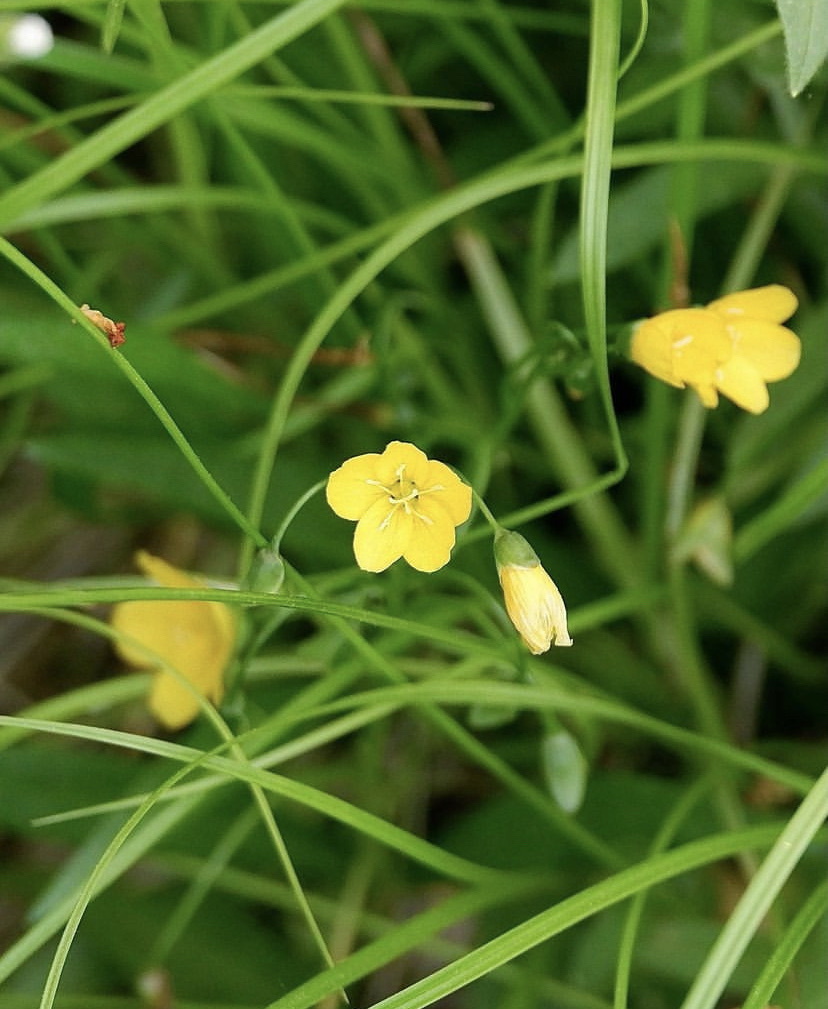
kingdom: Plantae
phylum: Tracheophyta
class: Magnoliopsida
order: Caryophyllales
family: Montiaceae
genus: Claytonia
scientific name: Claytonia virginica
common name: Virginia springbeauty
